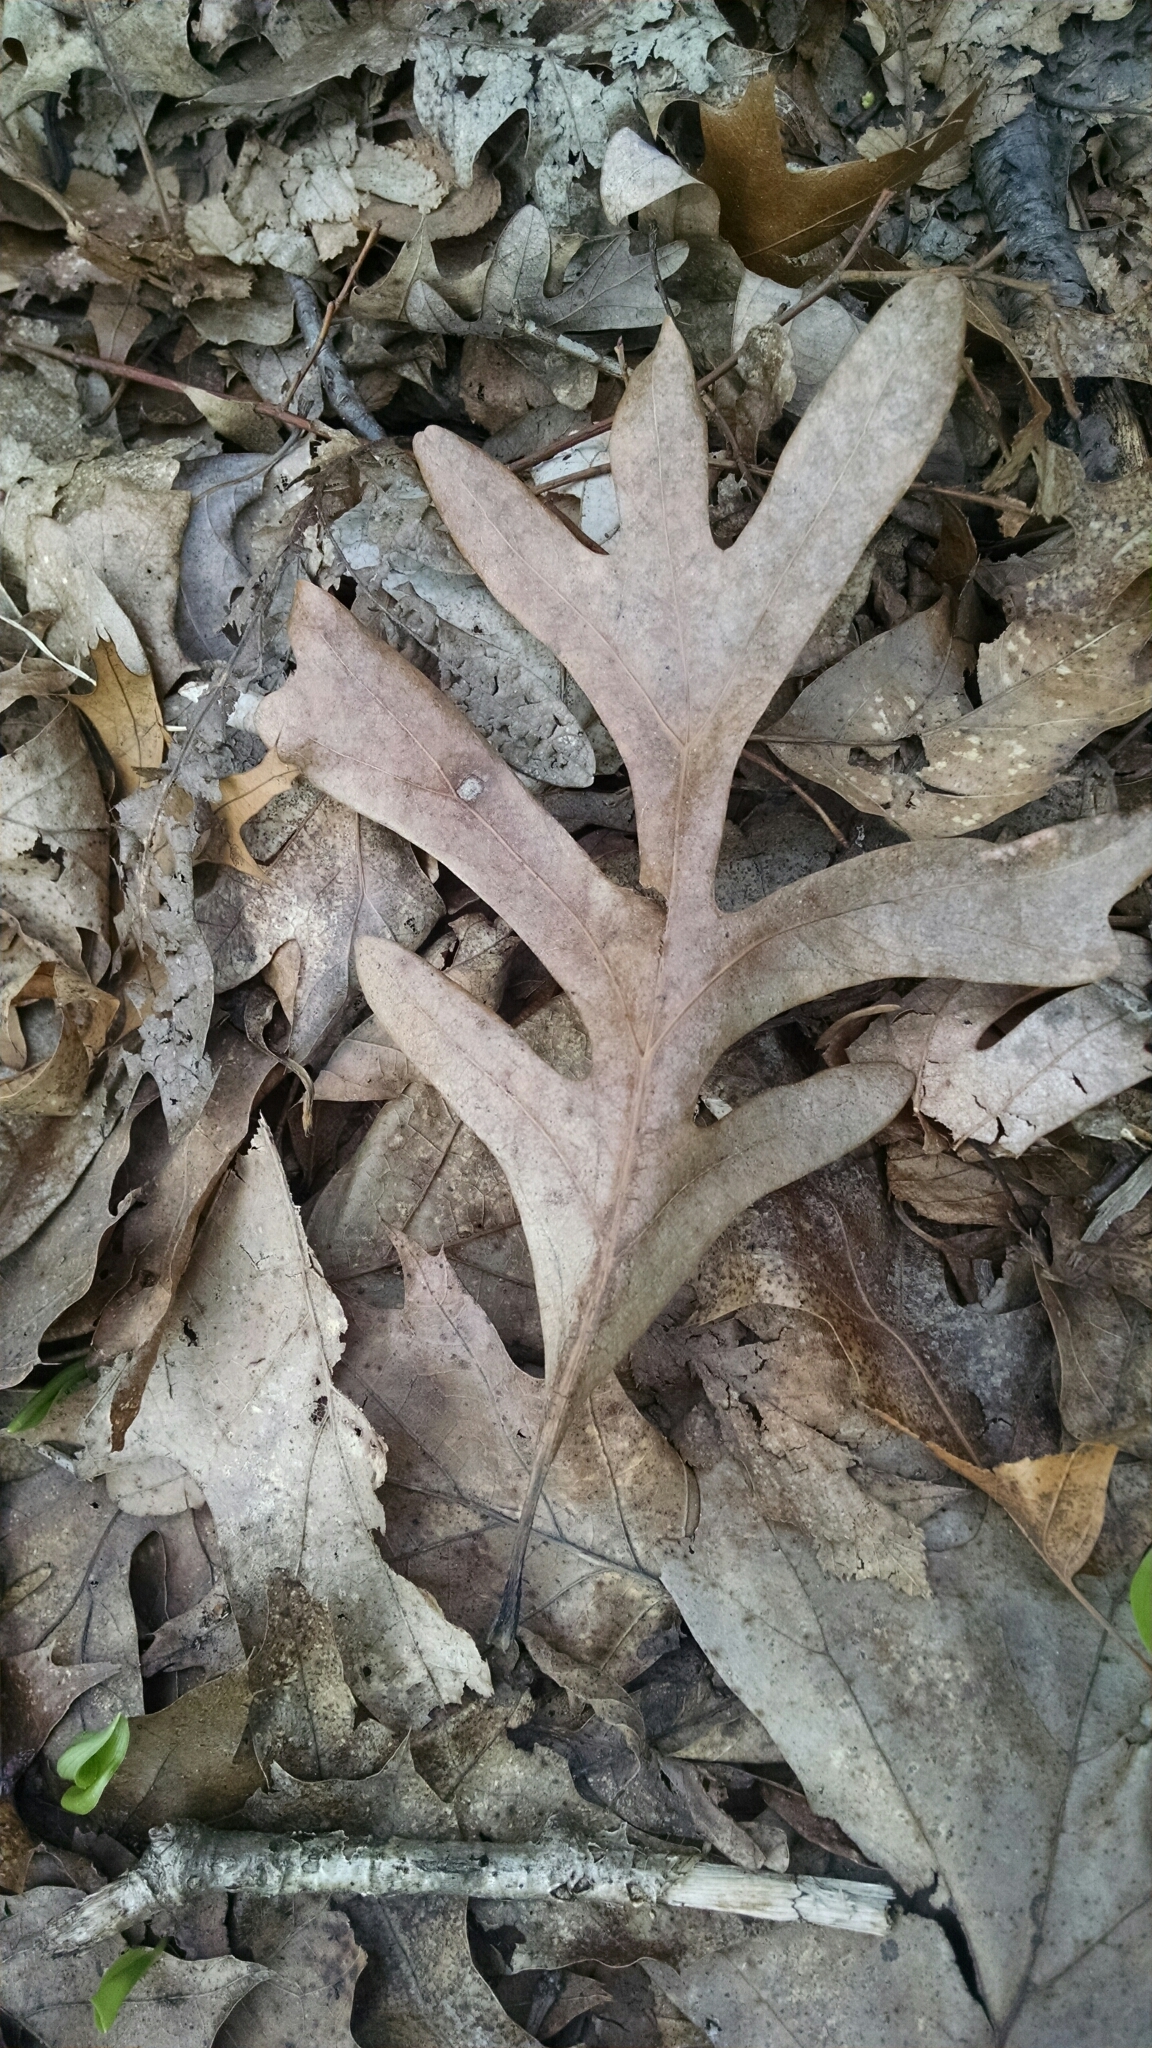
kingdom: Plantae
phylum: Tracheophyta
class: Magnoliopsida
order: Fagales
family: Fagaceae
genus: Quercus
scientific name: Quercus alba
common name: White oak
